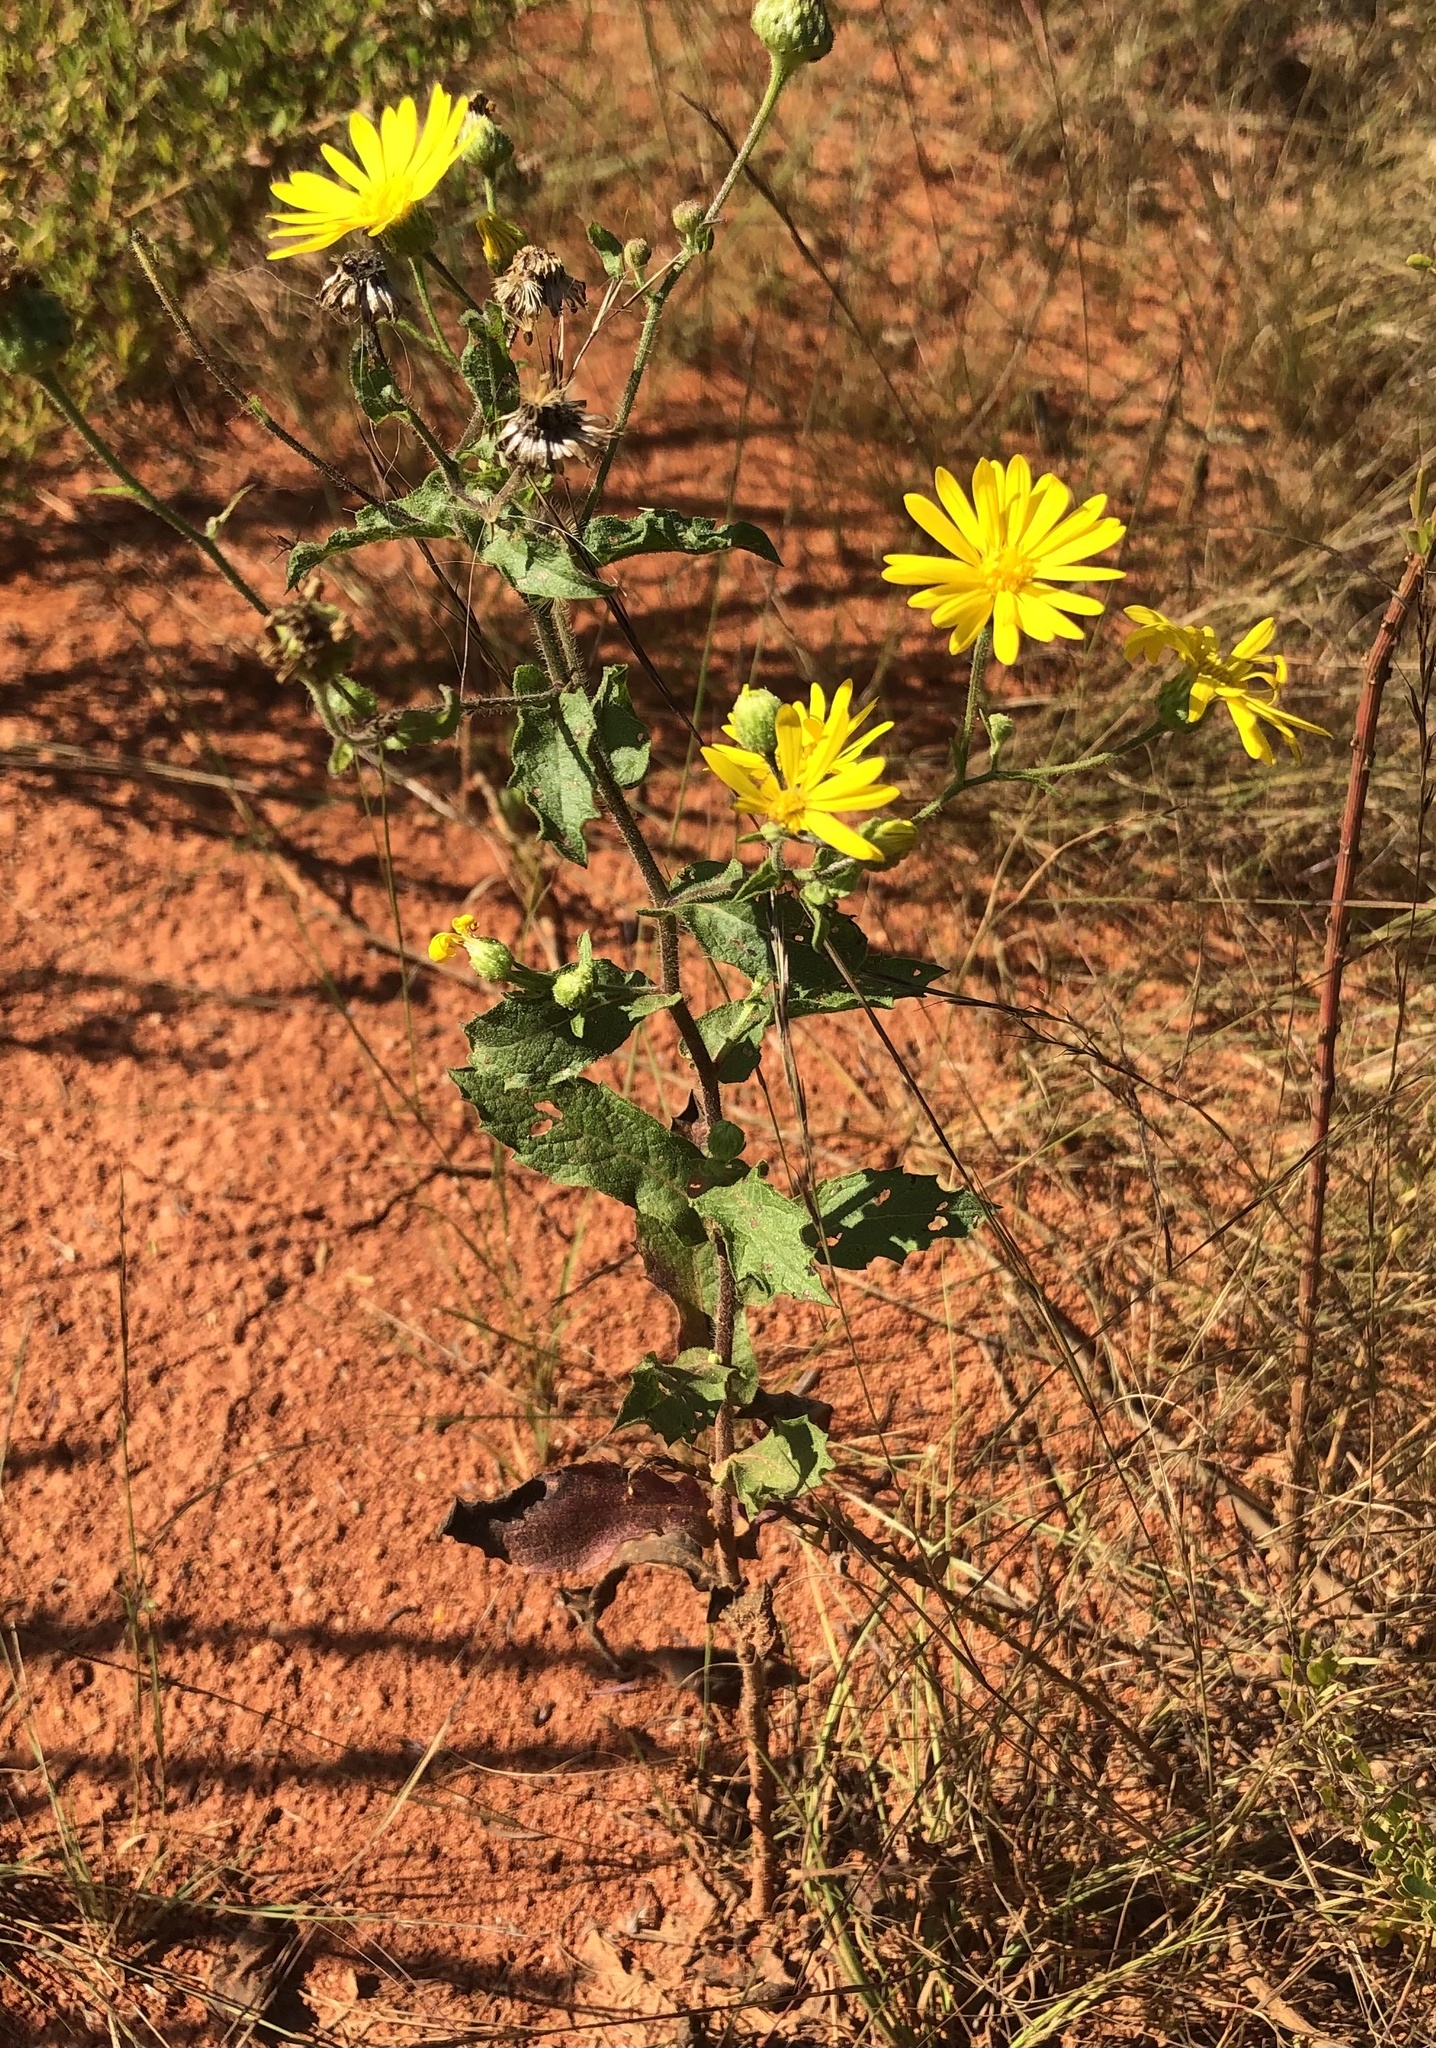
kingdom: Plantae
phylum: Tracheophyta
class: Magnoliopsida
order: Asterales
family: Asteraceae
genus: Heterotheca
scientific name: Heterotheca subaxillaris
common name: Camphorweed
